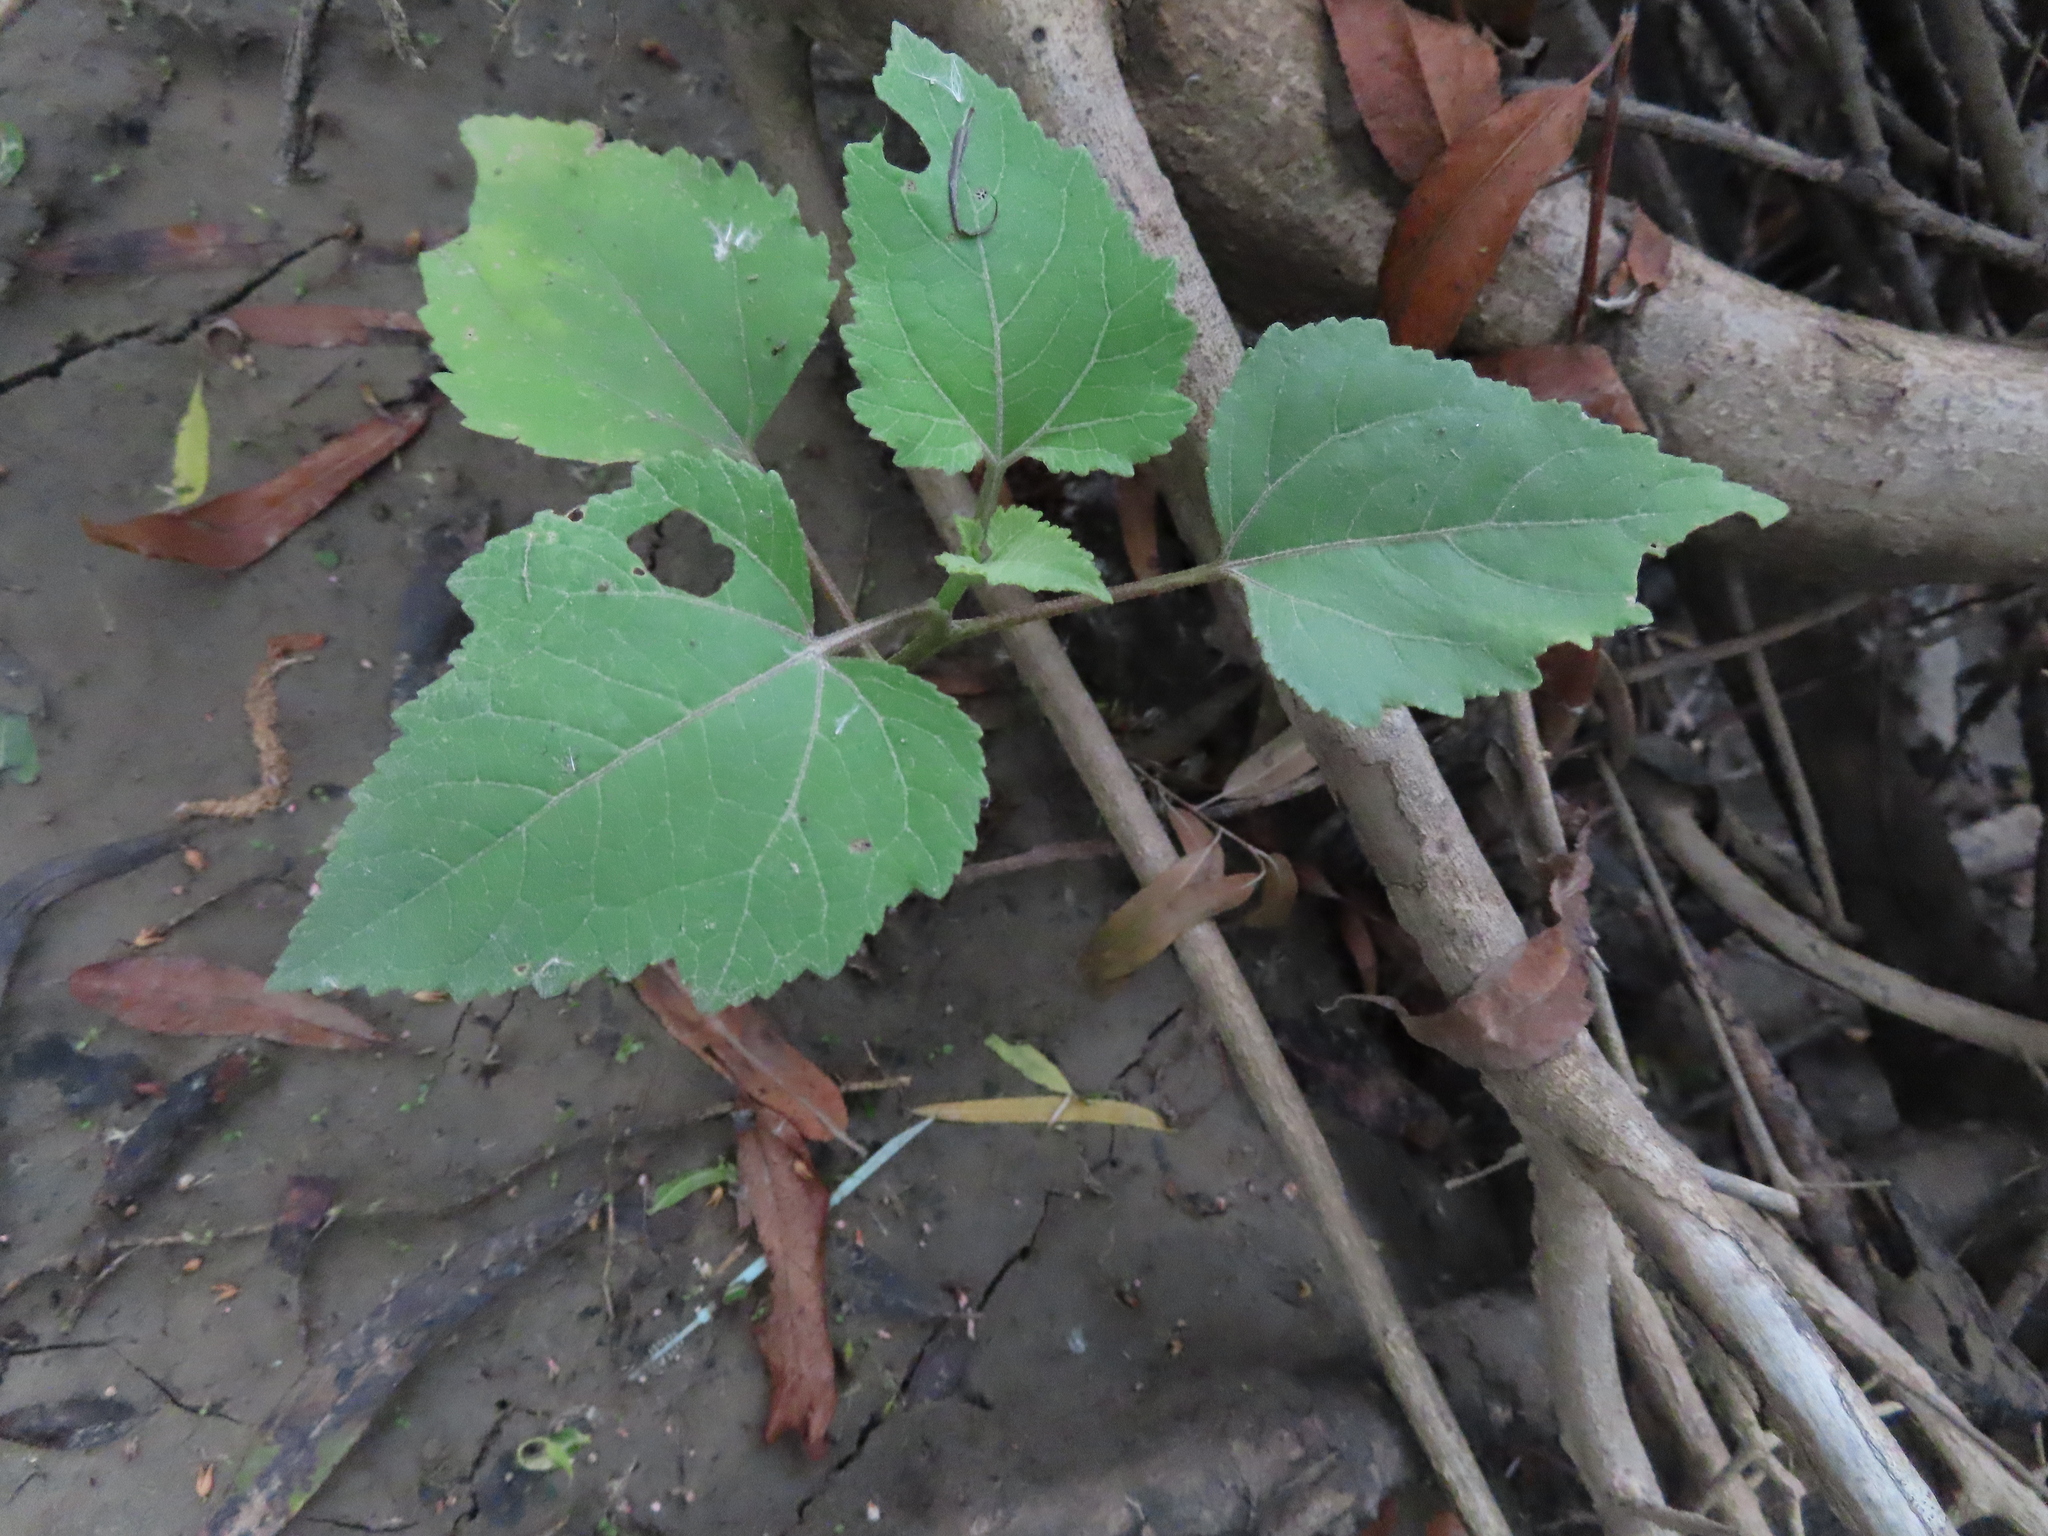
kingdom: Plantae
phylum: Tracheophyta
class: Magnoliopsida
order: Asterales
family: Asteraceae
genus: Xanthium
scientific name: Xanthium
